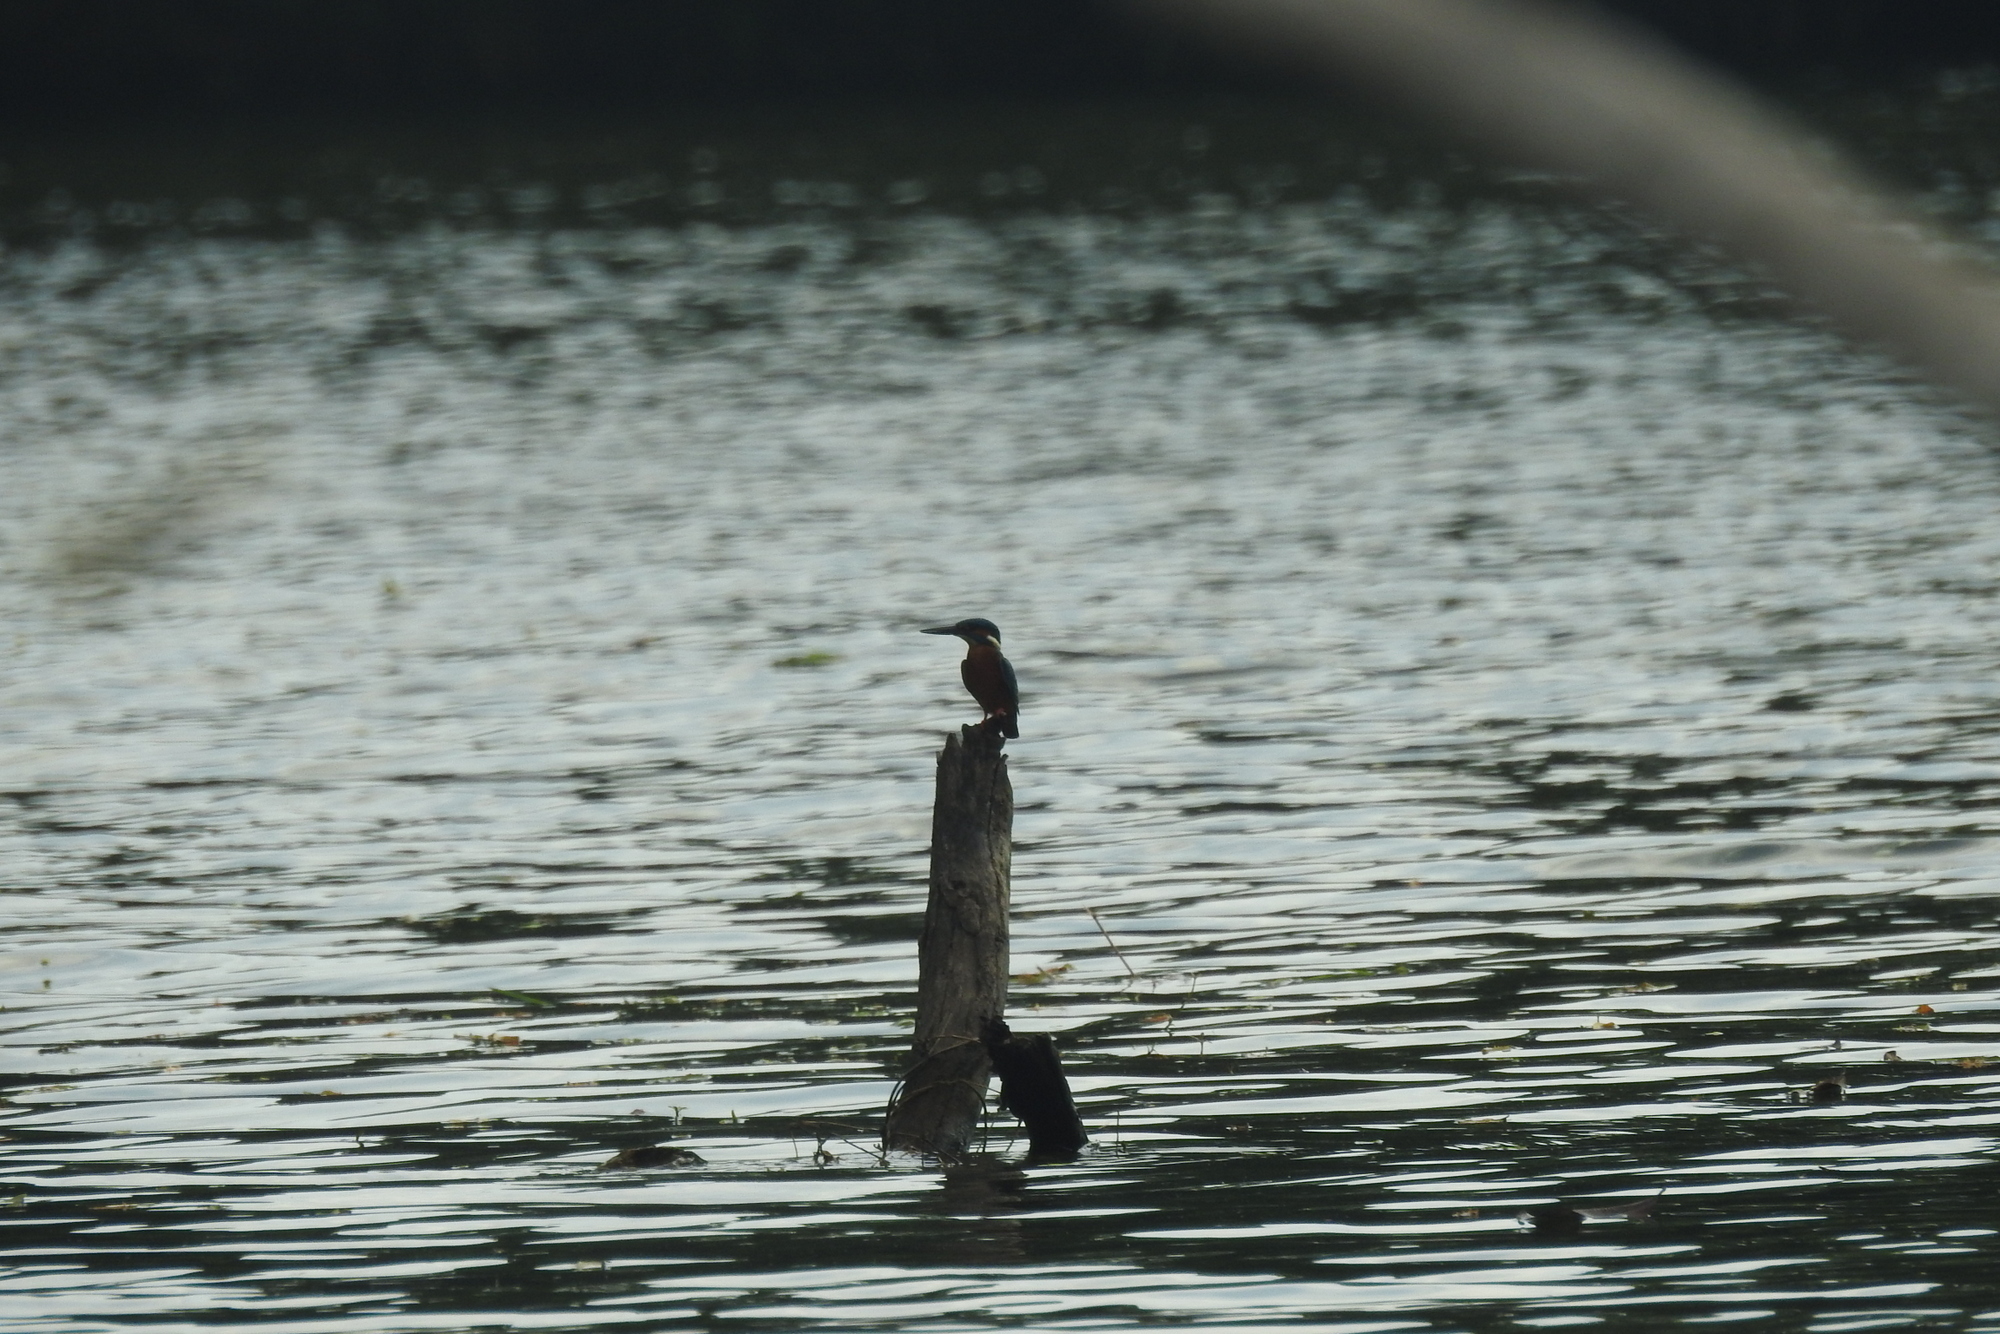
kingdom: Animalia
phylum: Chordata
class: Aves
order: Coraciiformes
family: Alcedinidae
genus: Alcedo
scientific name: Alcedo atthis
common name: Common kingfisher
